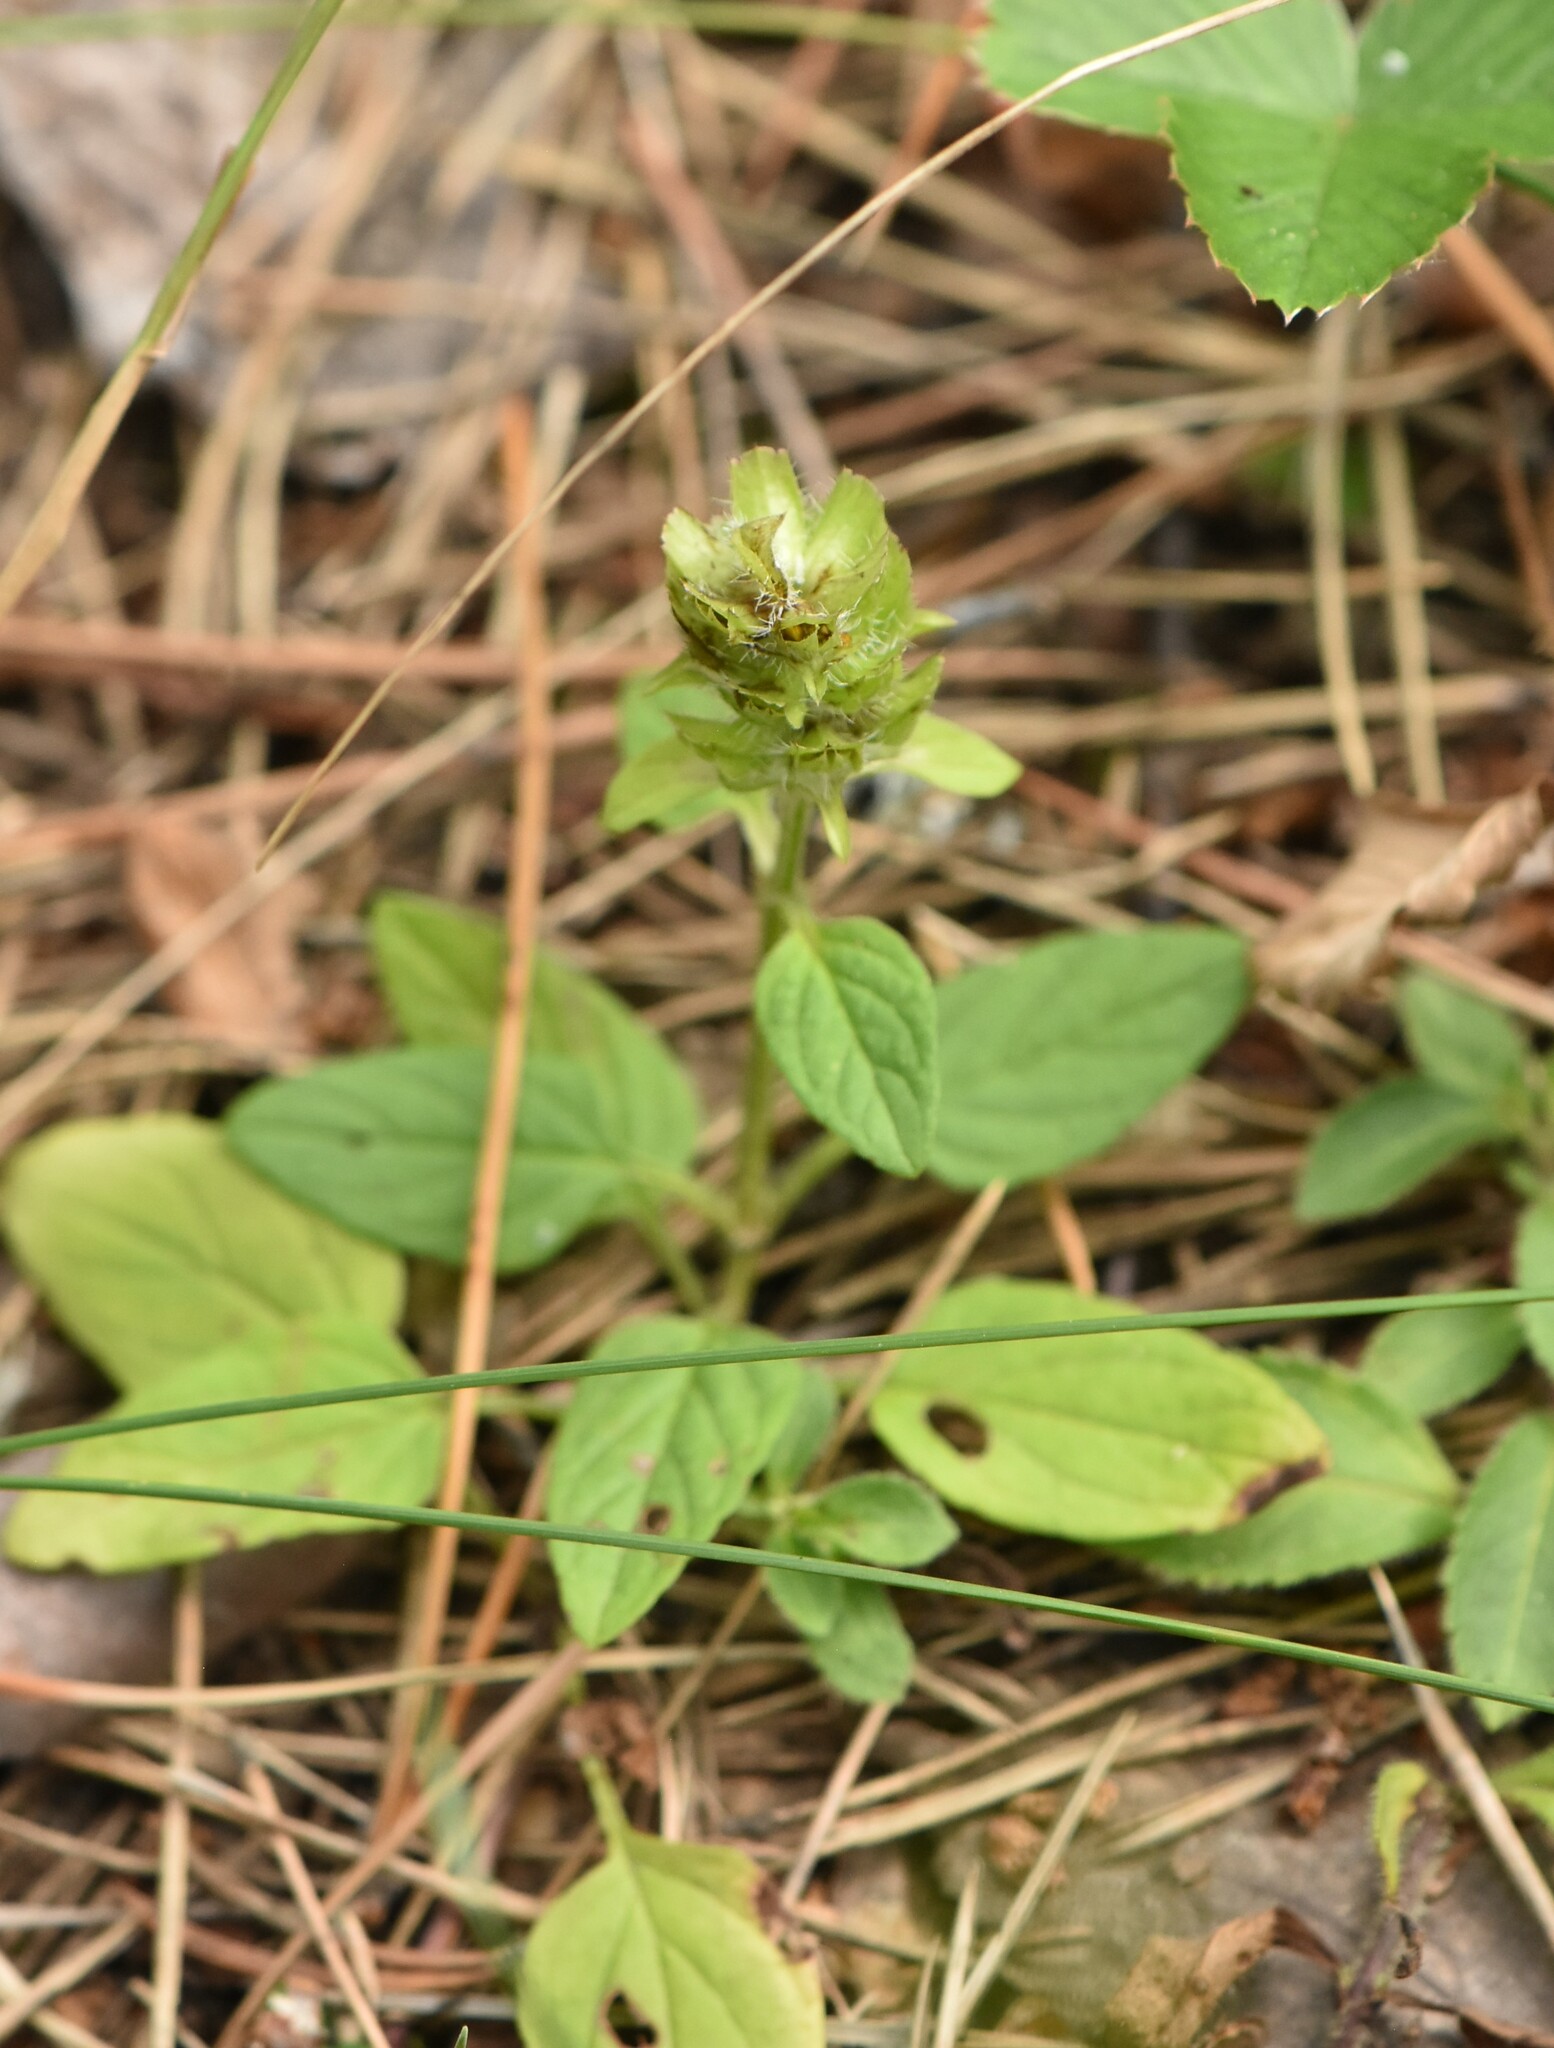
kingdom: Plantae
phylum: Tracheophyta
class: Magnoliopsida
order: Lamiales
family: Lamiaceae
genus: Prunella
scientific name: Prunella vulgaris
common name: Heal-all
